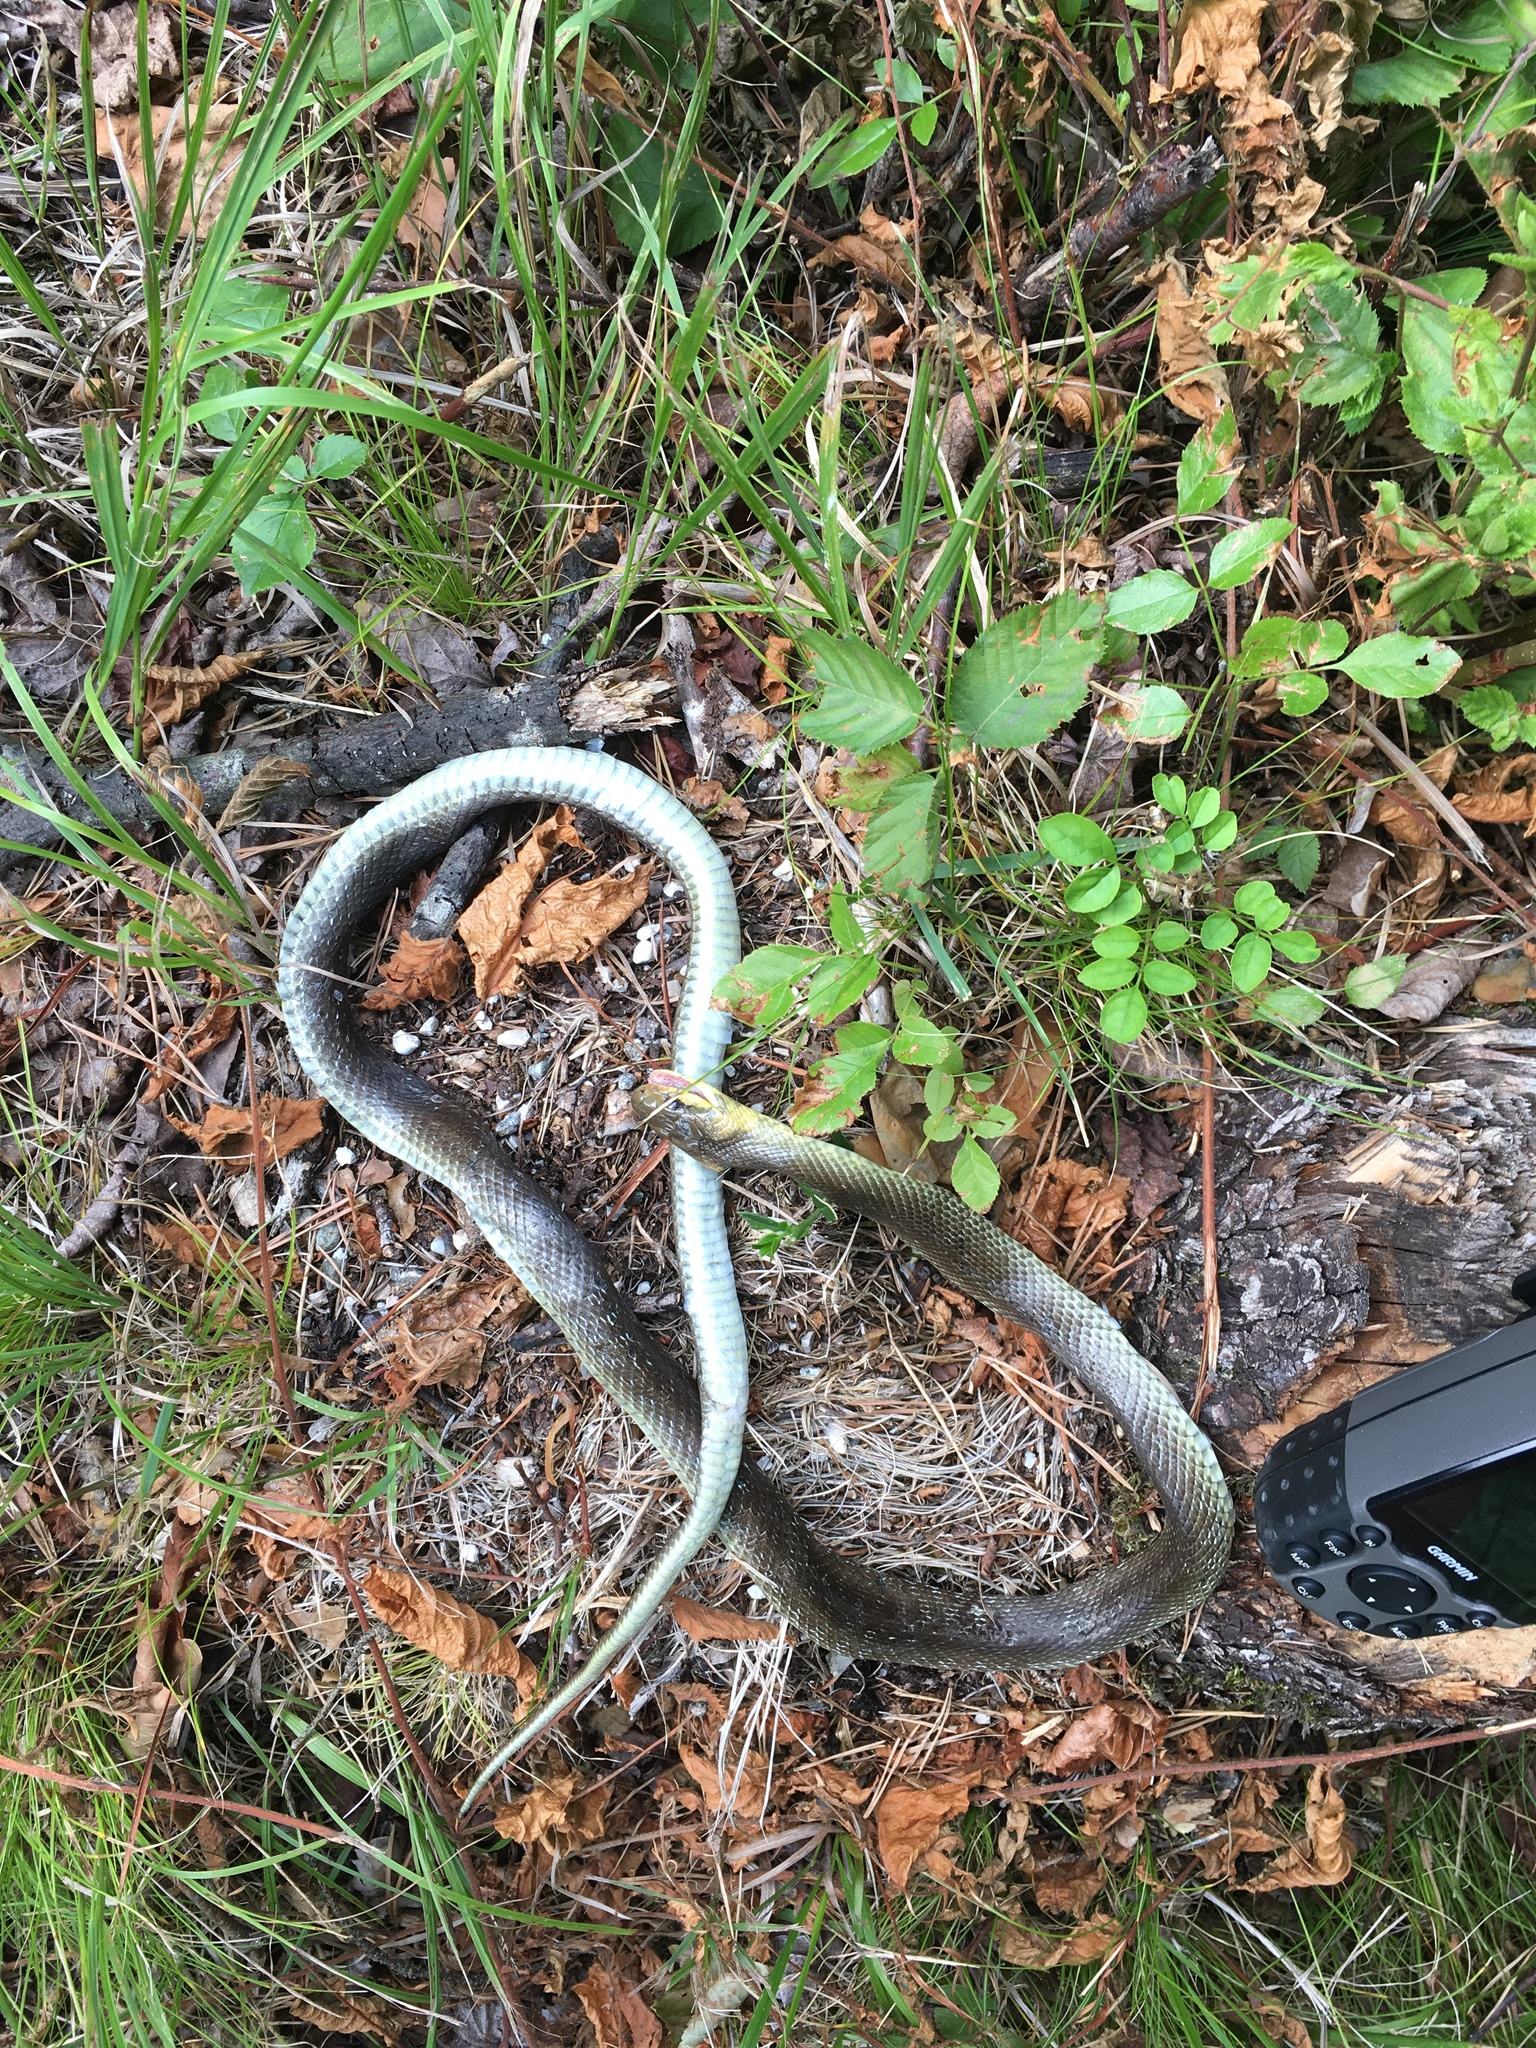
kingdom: Animalia
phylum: Chordata
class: Squamata
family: Colubridae
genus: Zamenis
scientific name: Zamenis longissimus
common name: Aesculapean snake
